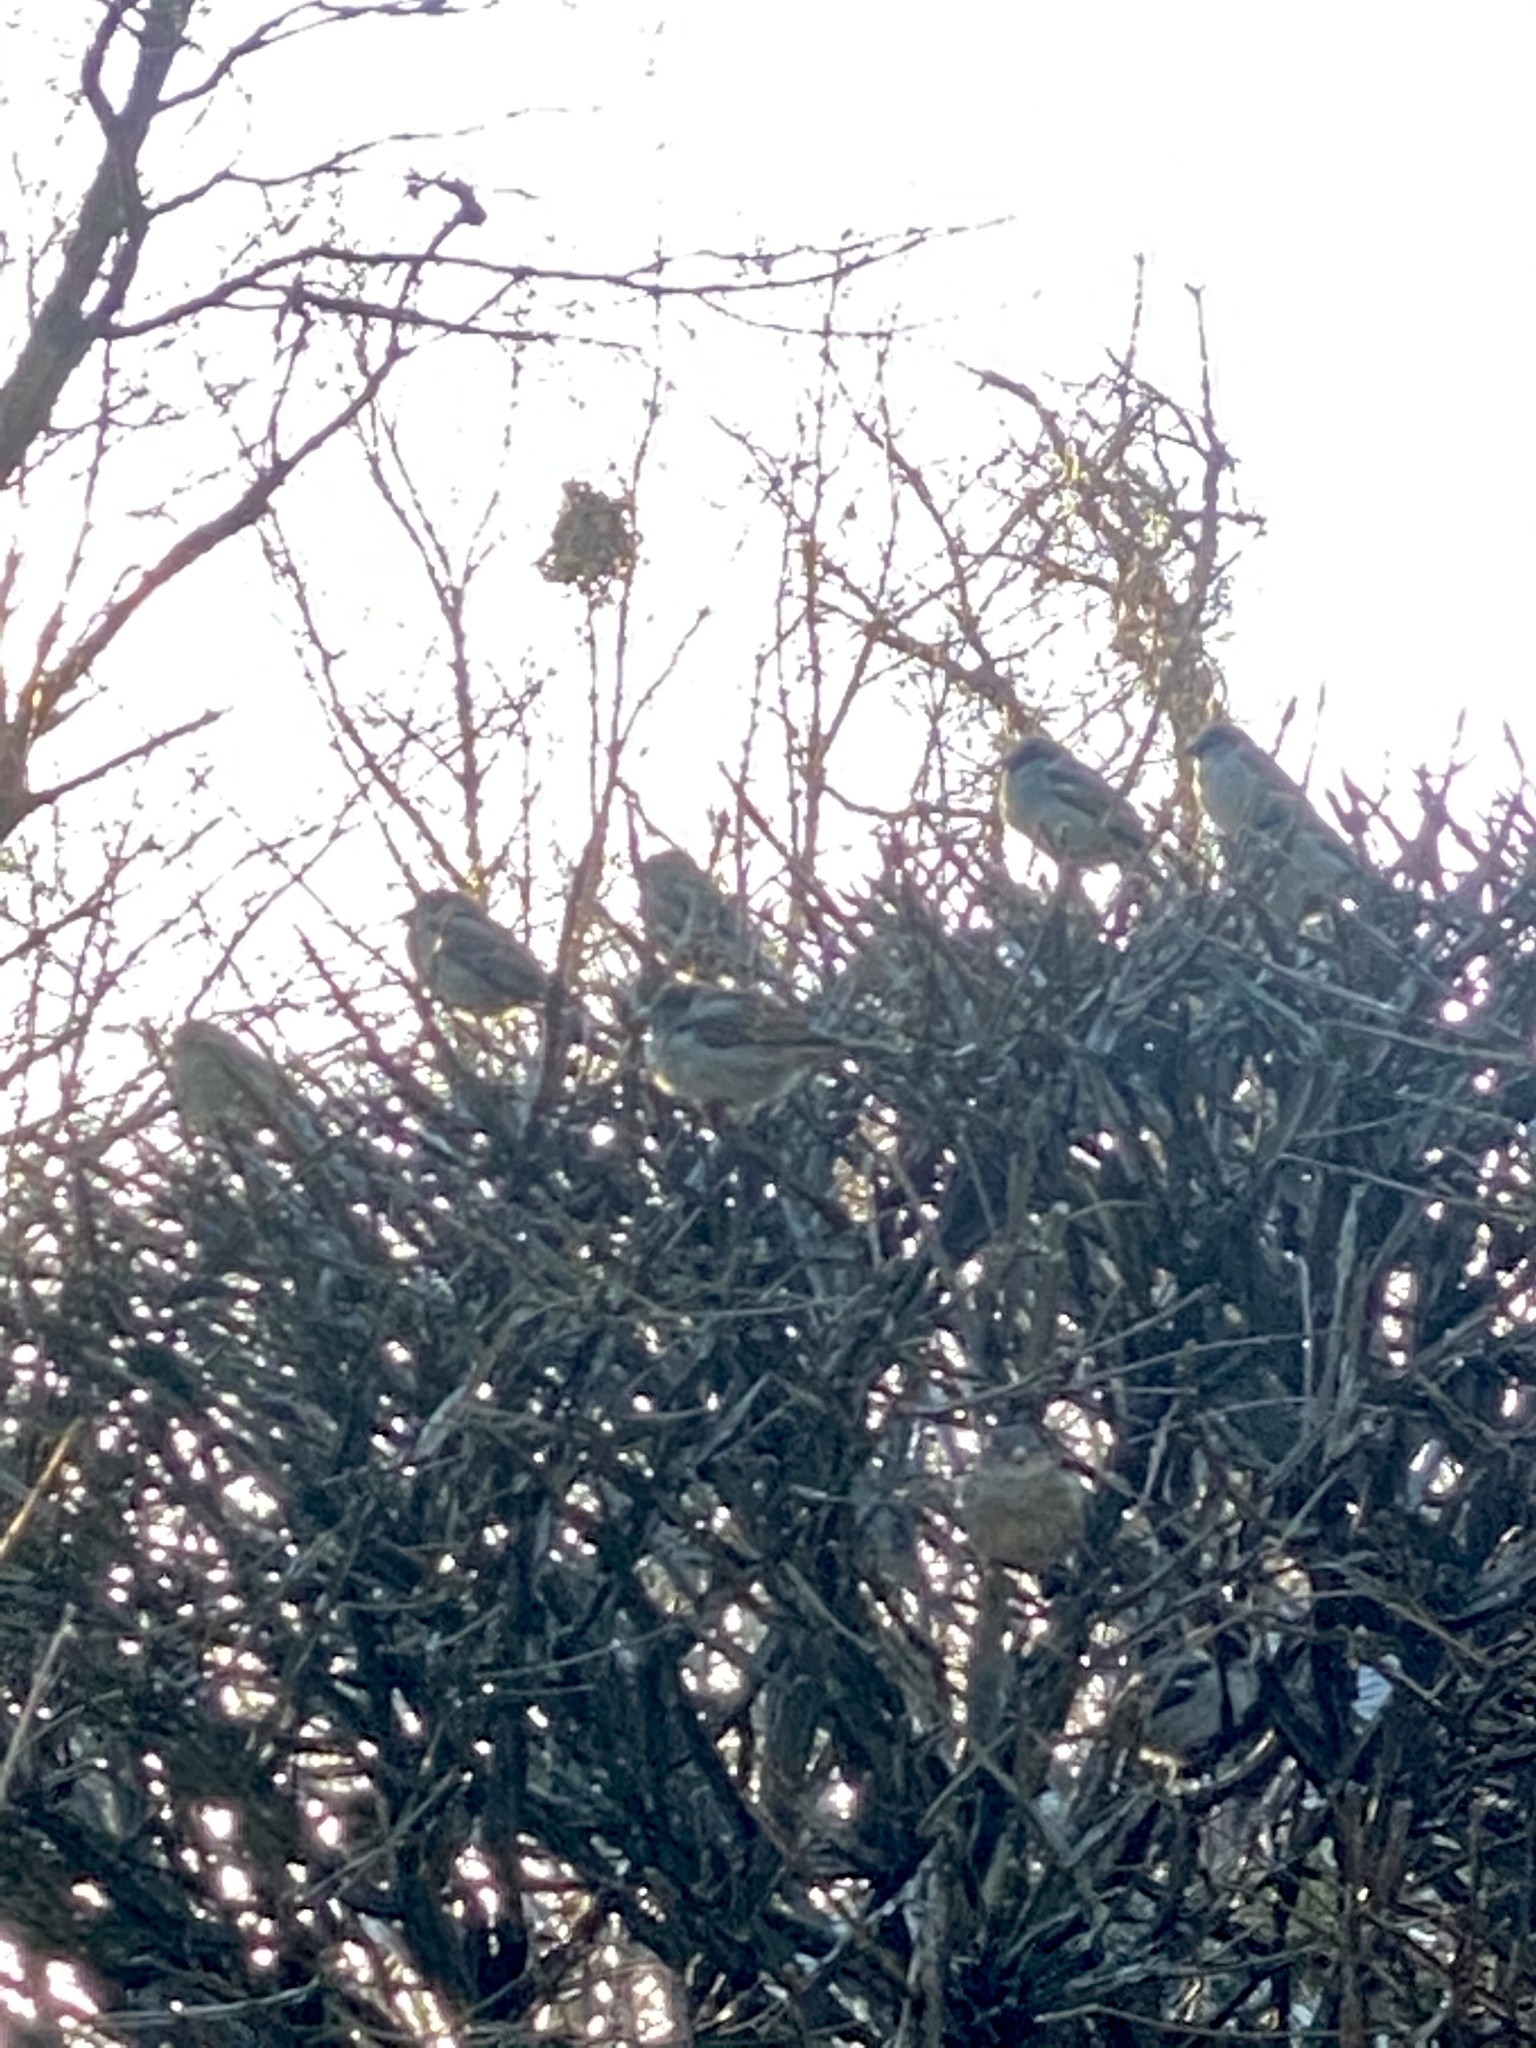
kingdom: Animalia
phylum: Chordata
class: Aves
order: Passeriformes
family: Passeridae
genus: Passer
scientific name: Passer domesticus
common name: House sparrow
